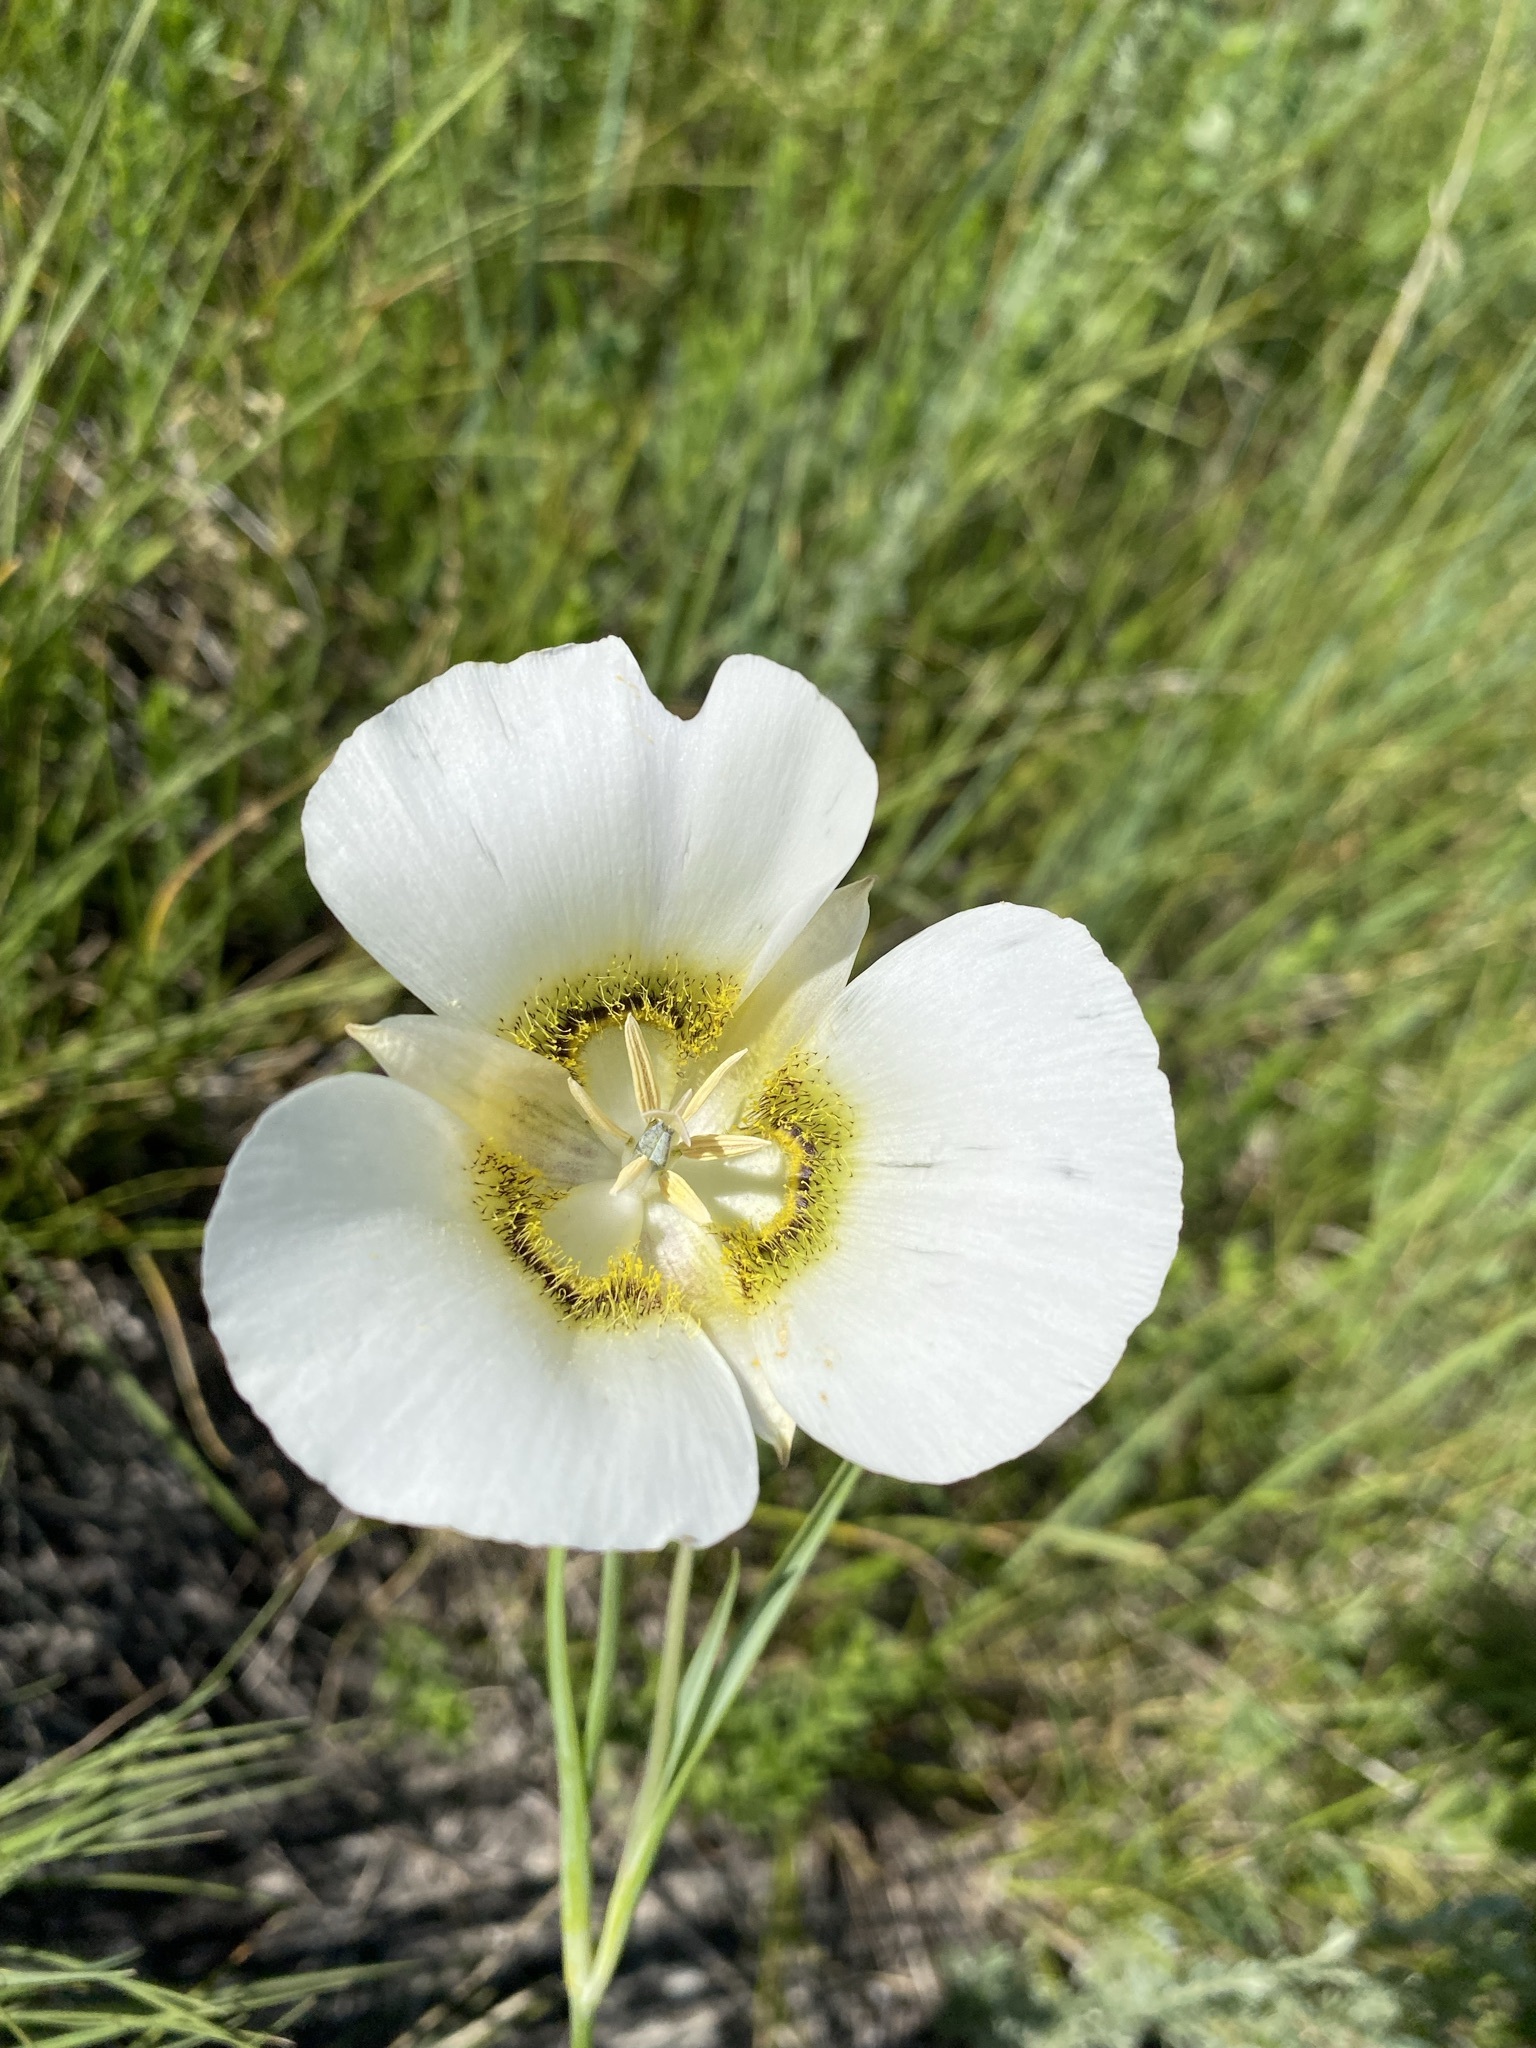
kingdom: Plantae
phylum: Tracheophyta
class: Liliopsida
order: Liliales
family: Liliaceae
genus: Calochortus
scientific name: Calochortus gunnisonii
